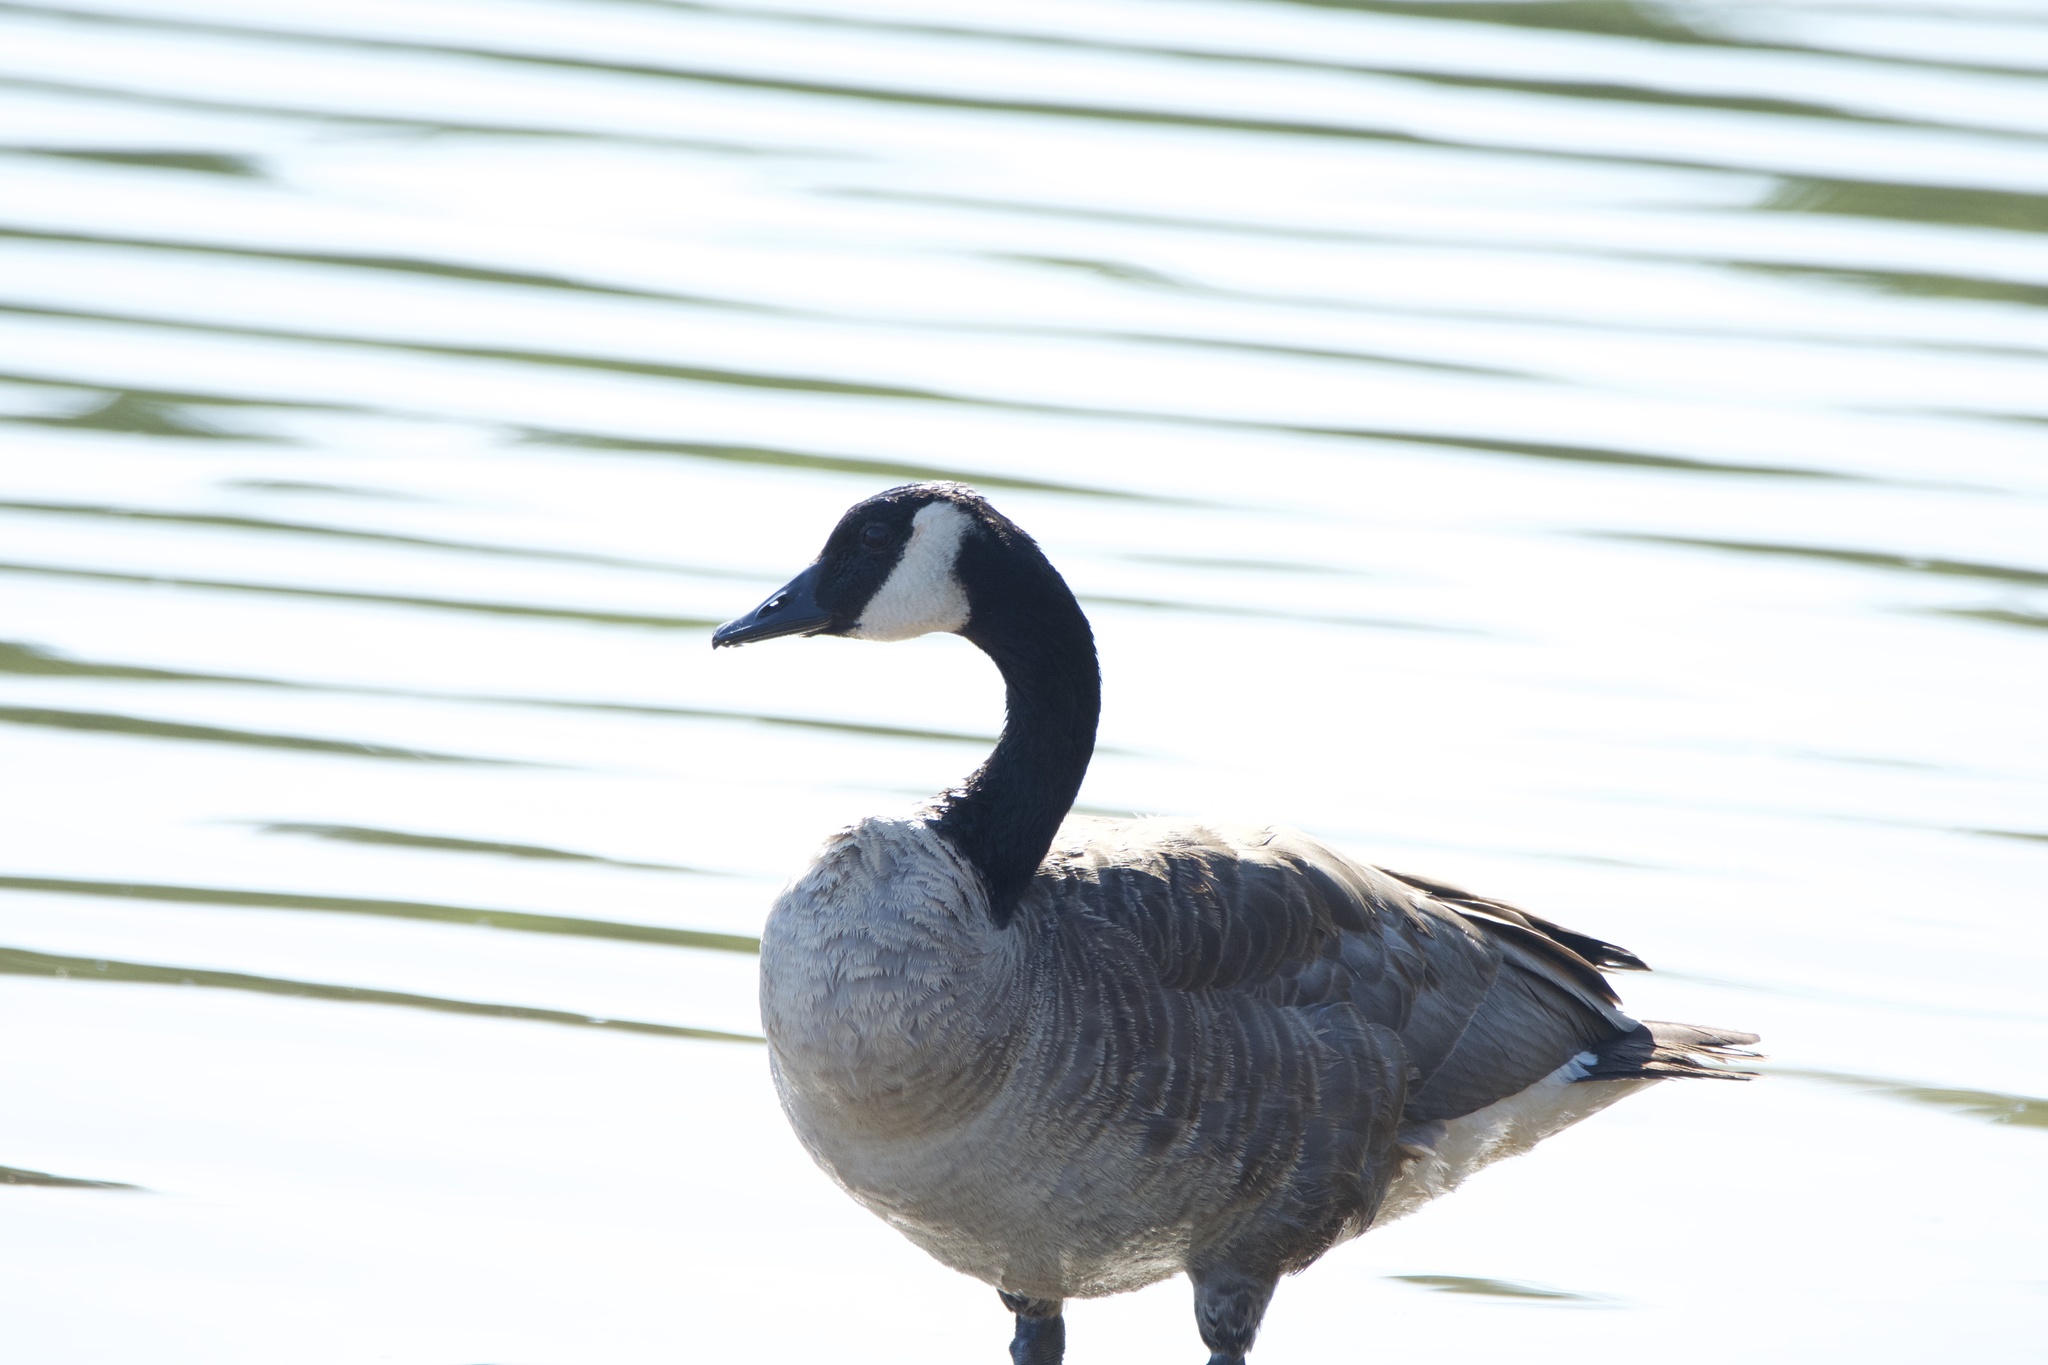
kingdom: Animalia
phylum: Chordata
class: Aves
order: Anseriformes
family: Anatidae
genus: Branta
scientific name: Branta canadensis
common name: Canada goose
